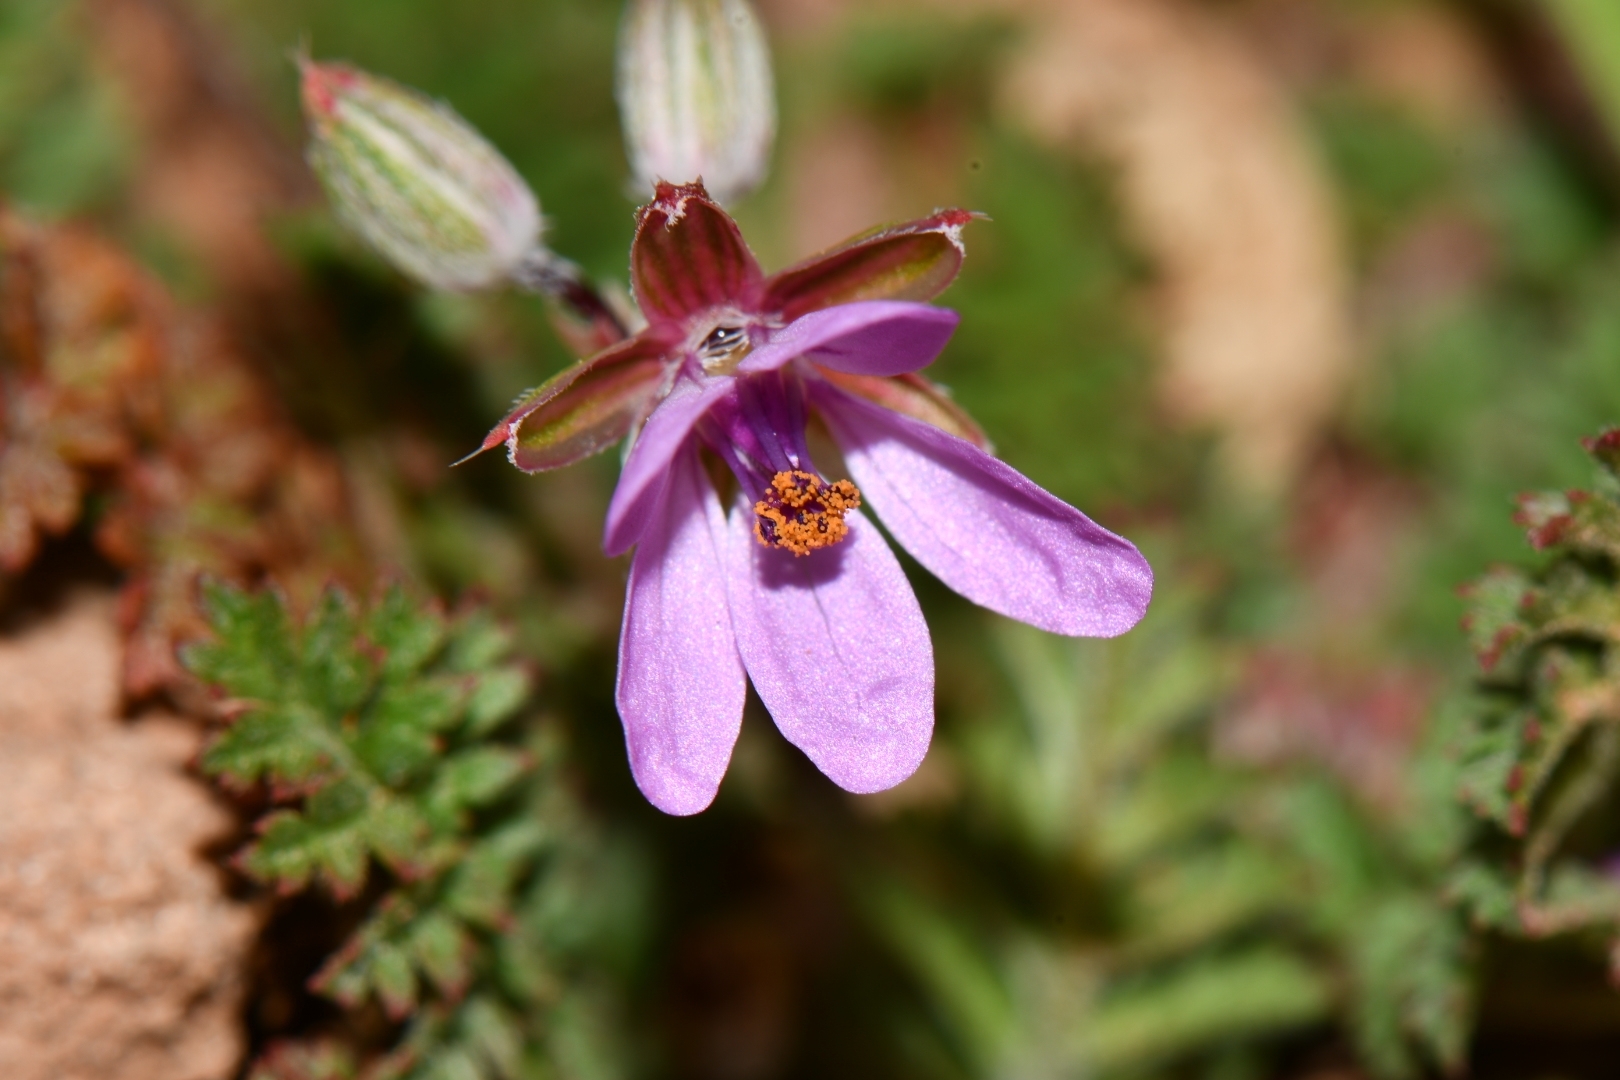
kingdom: Plantae
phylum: Tracheophyta
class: Magnoliopsida
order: Geraniales
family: Geraniaceae
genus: Erodium
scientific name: Erodium cicutarium
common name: Common stork's-bill
